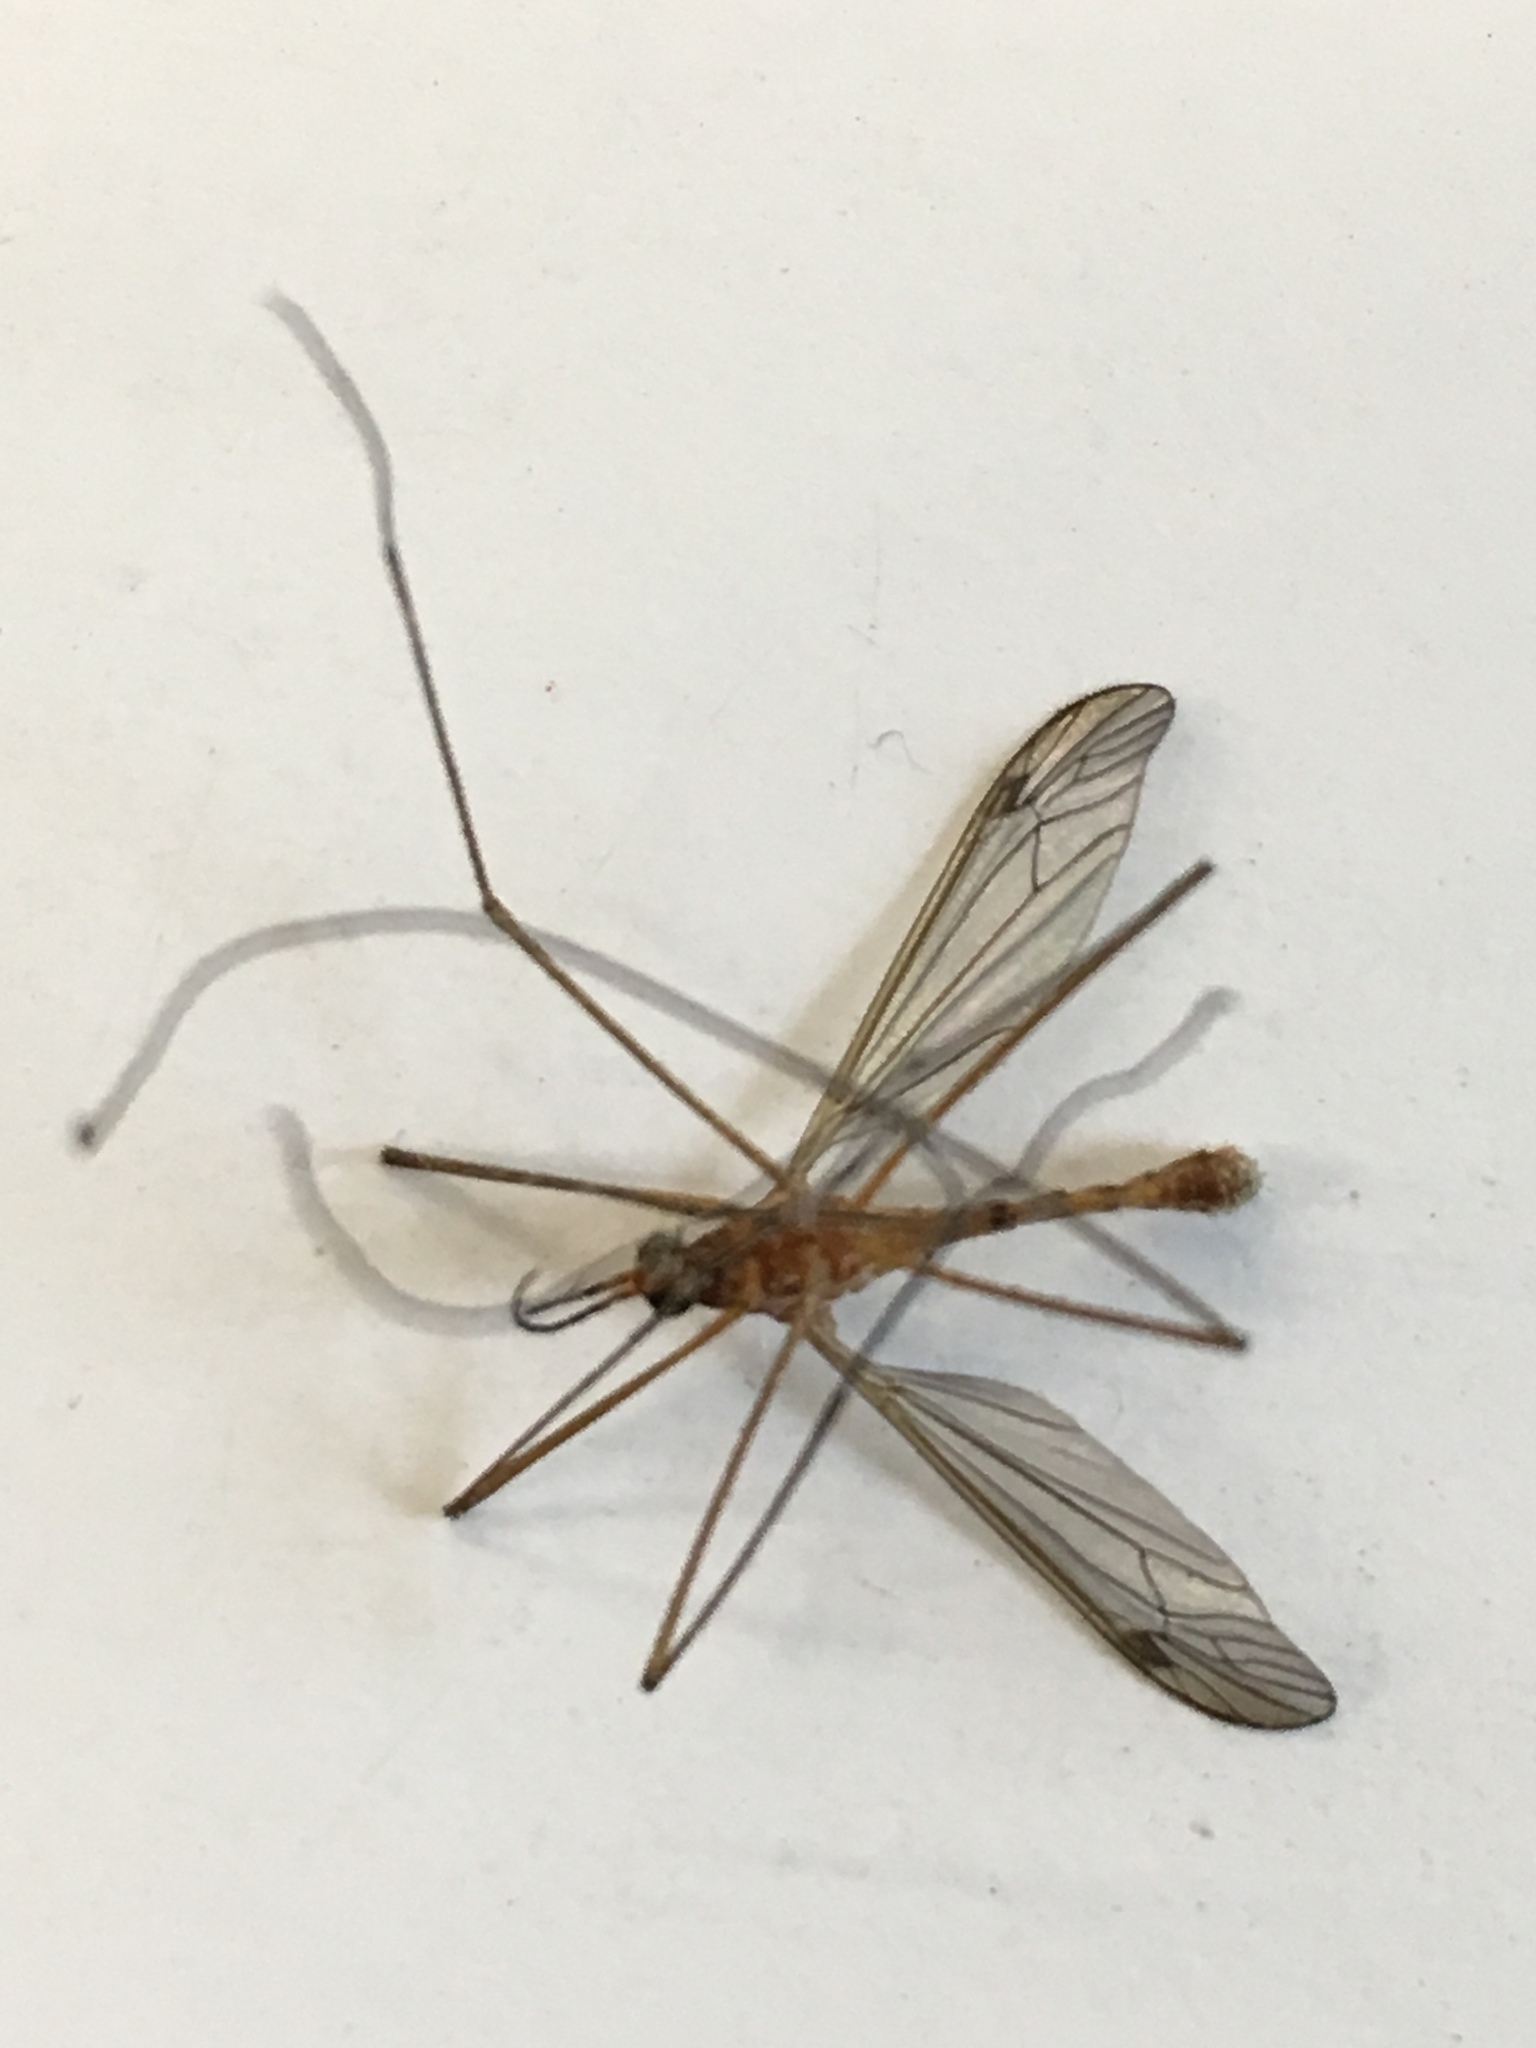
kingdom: Animalia
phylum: Arthropoda
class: Insecta
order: Diptera
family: Tipulidae
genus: Nephrotoma
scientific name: Nephrotoma ferruginea
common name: Ferruginous tiger crane fly
